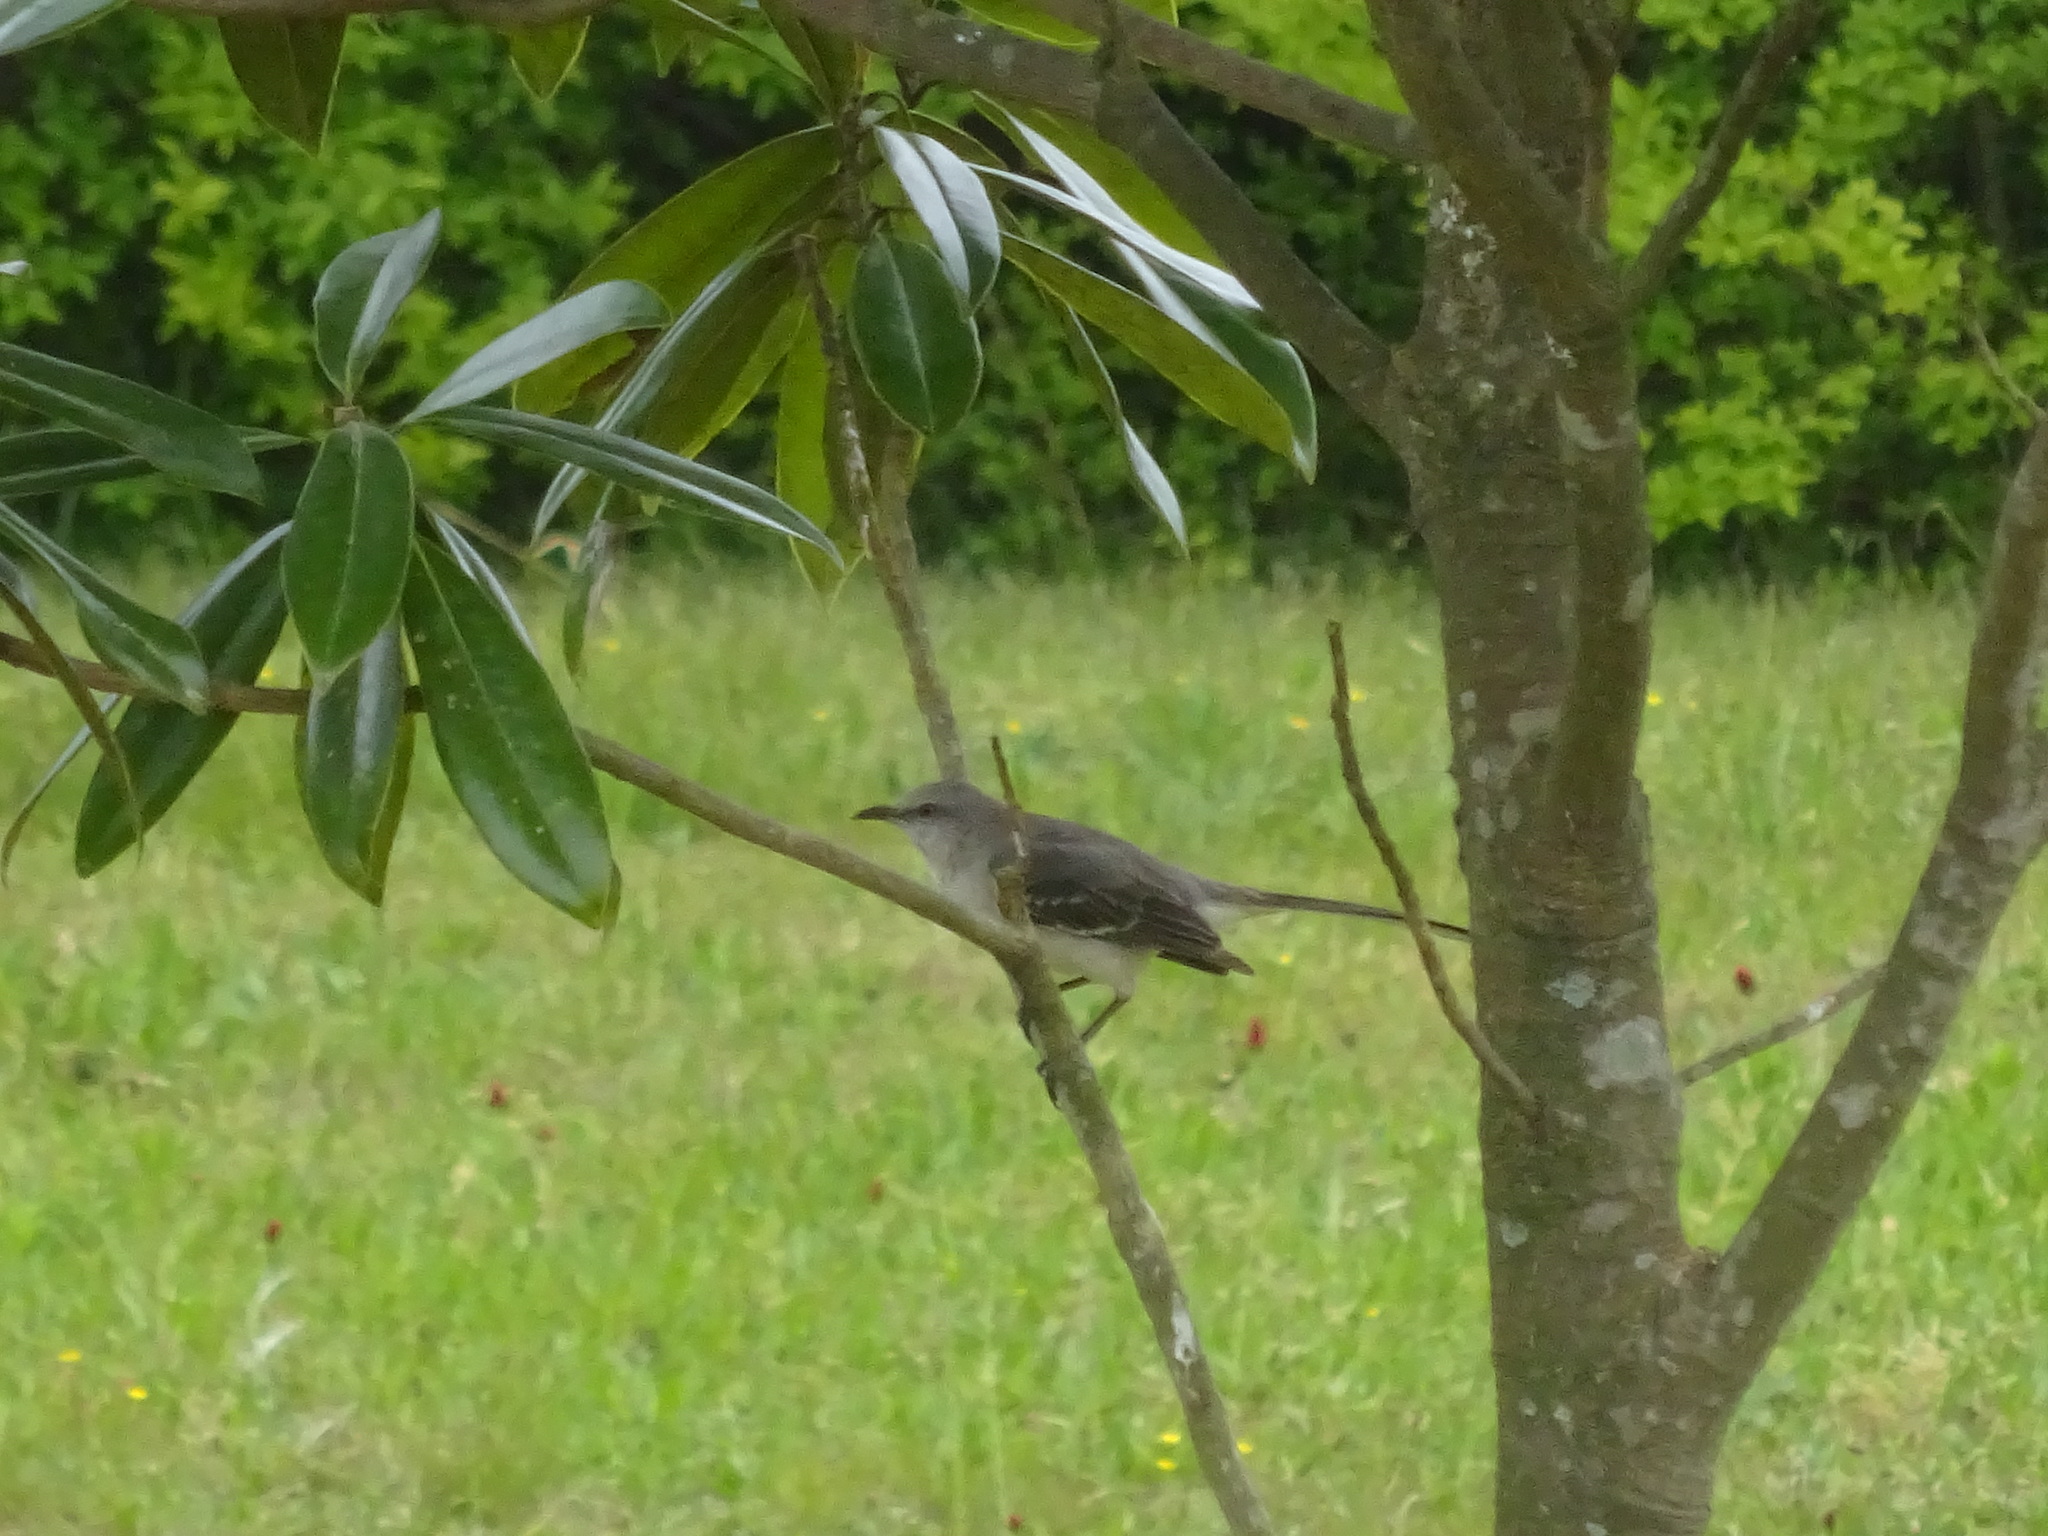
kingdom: Animalia
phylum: Chordata
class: Aves
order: Passeriformes
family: Mimidae
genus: Mimus
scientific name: Mimus polyglottos
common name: Northern mockingbird
